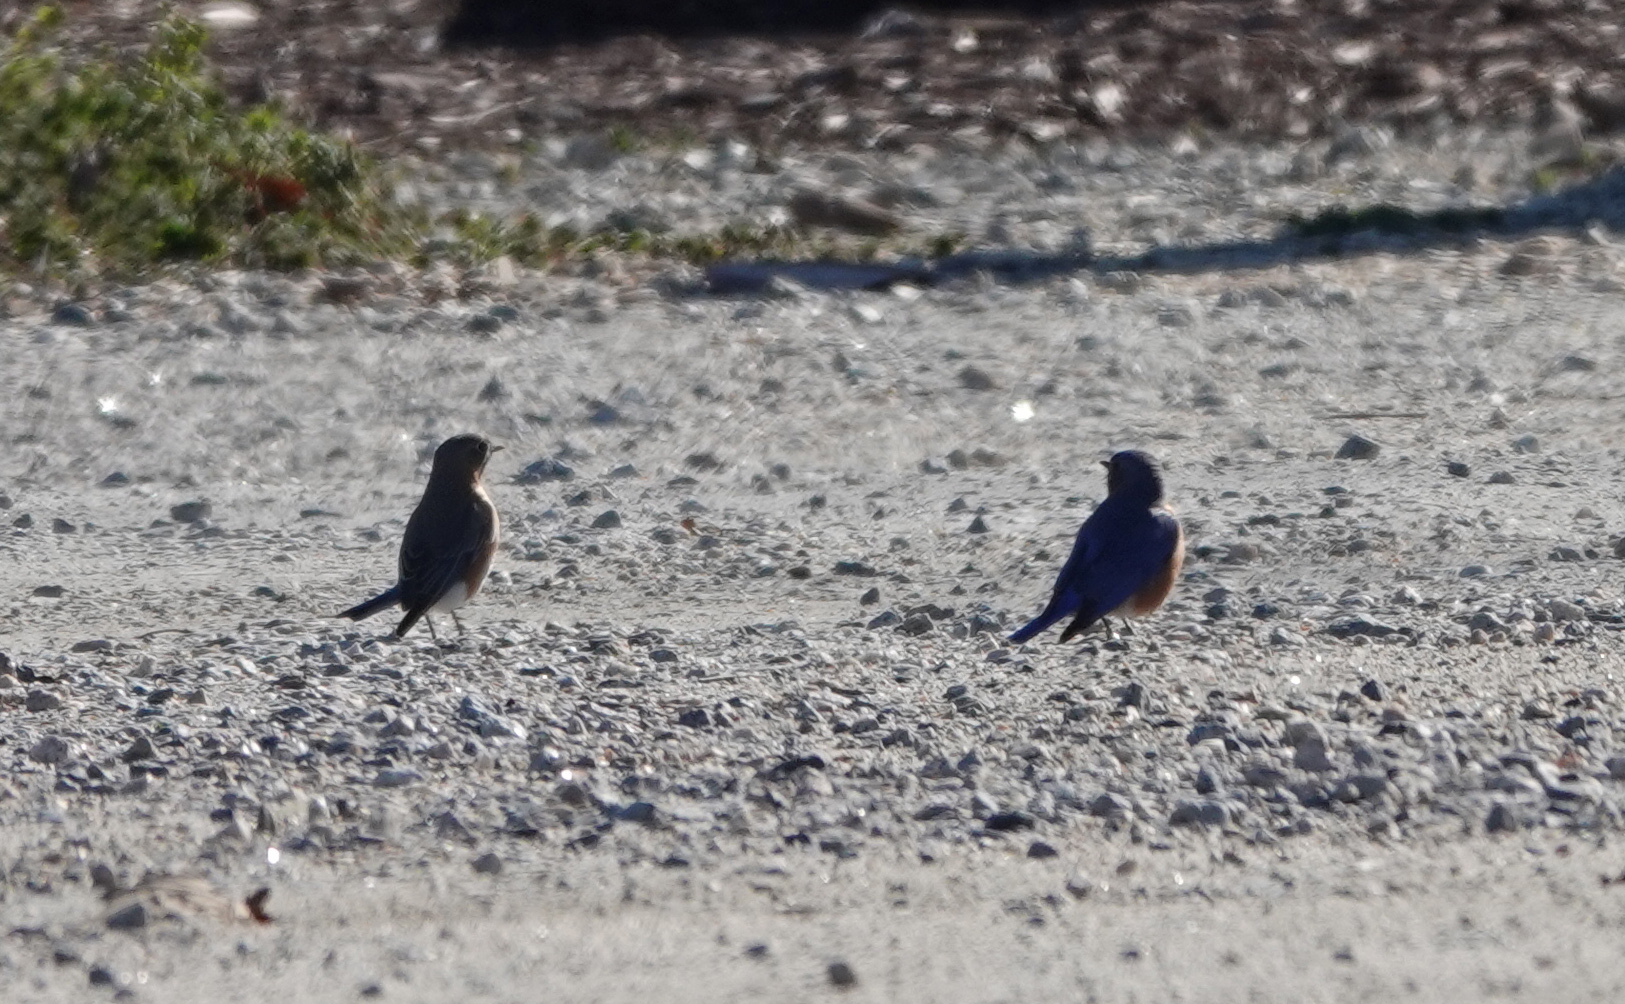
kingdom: Animalia
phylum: Chordata
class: Aves
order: Passeriformes
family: Turdidae
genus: Sialia
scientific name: Sialia sialis
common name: Eastern bluebird
